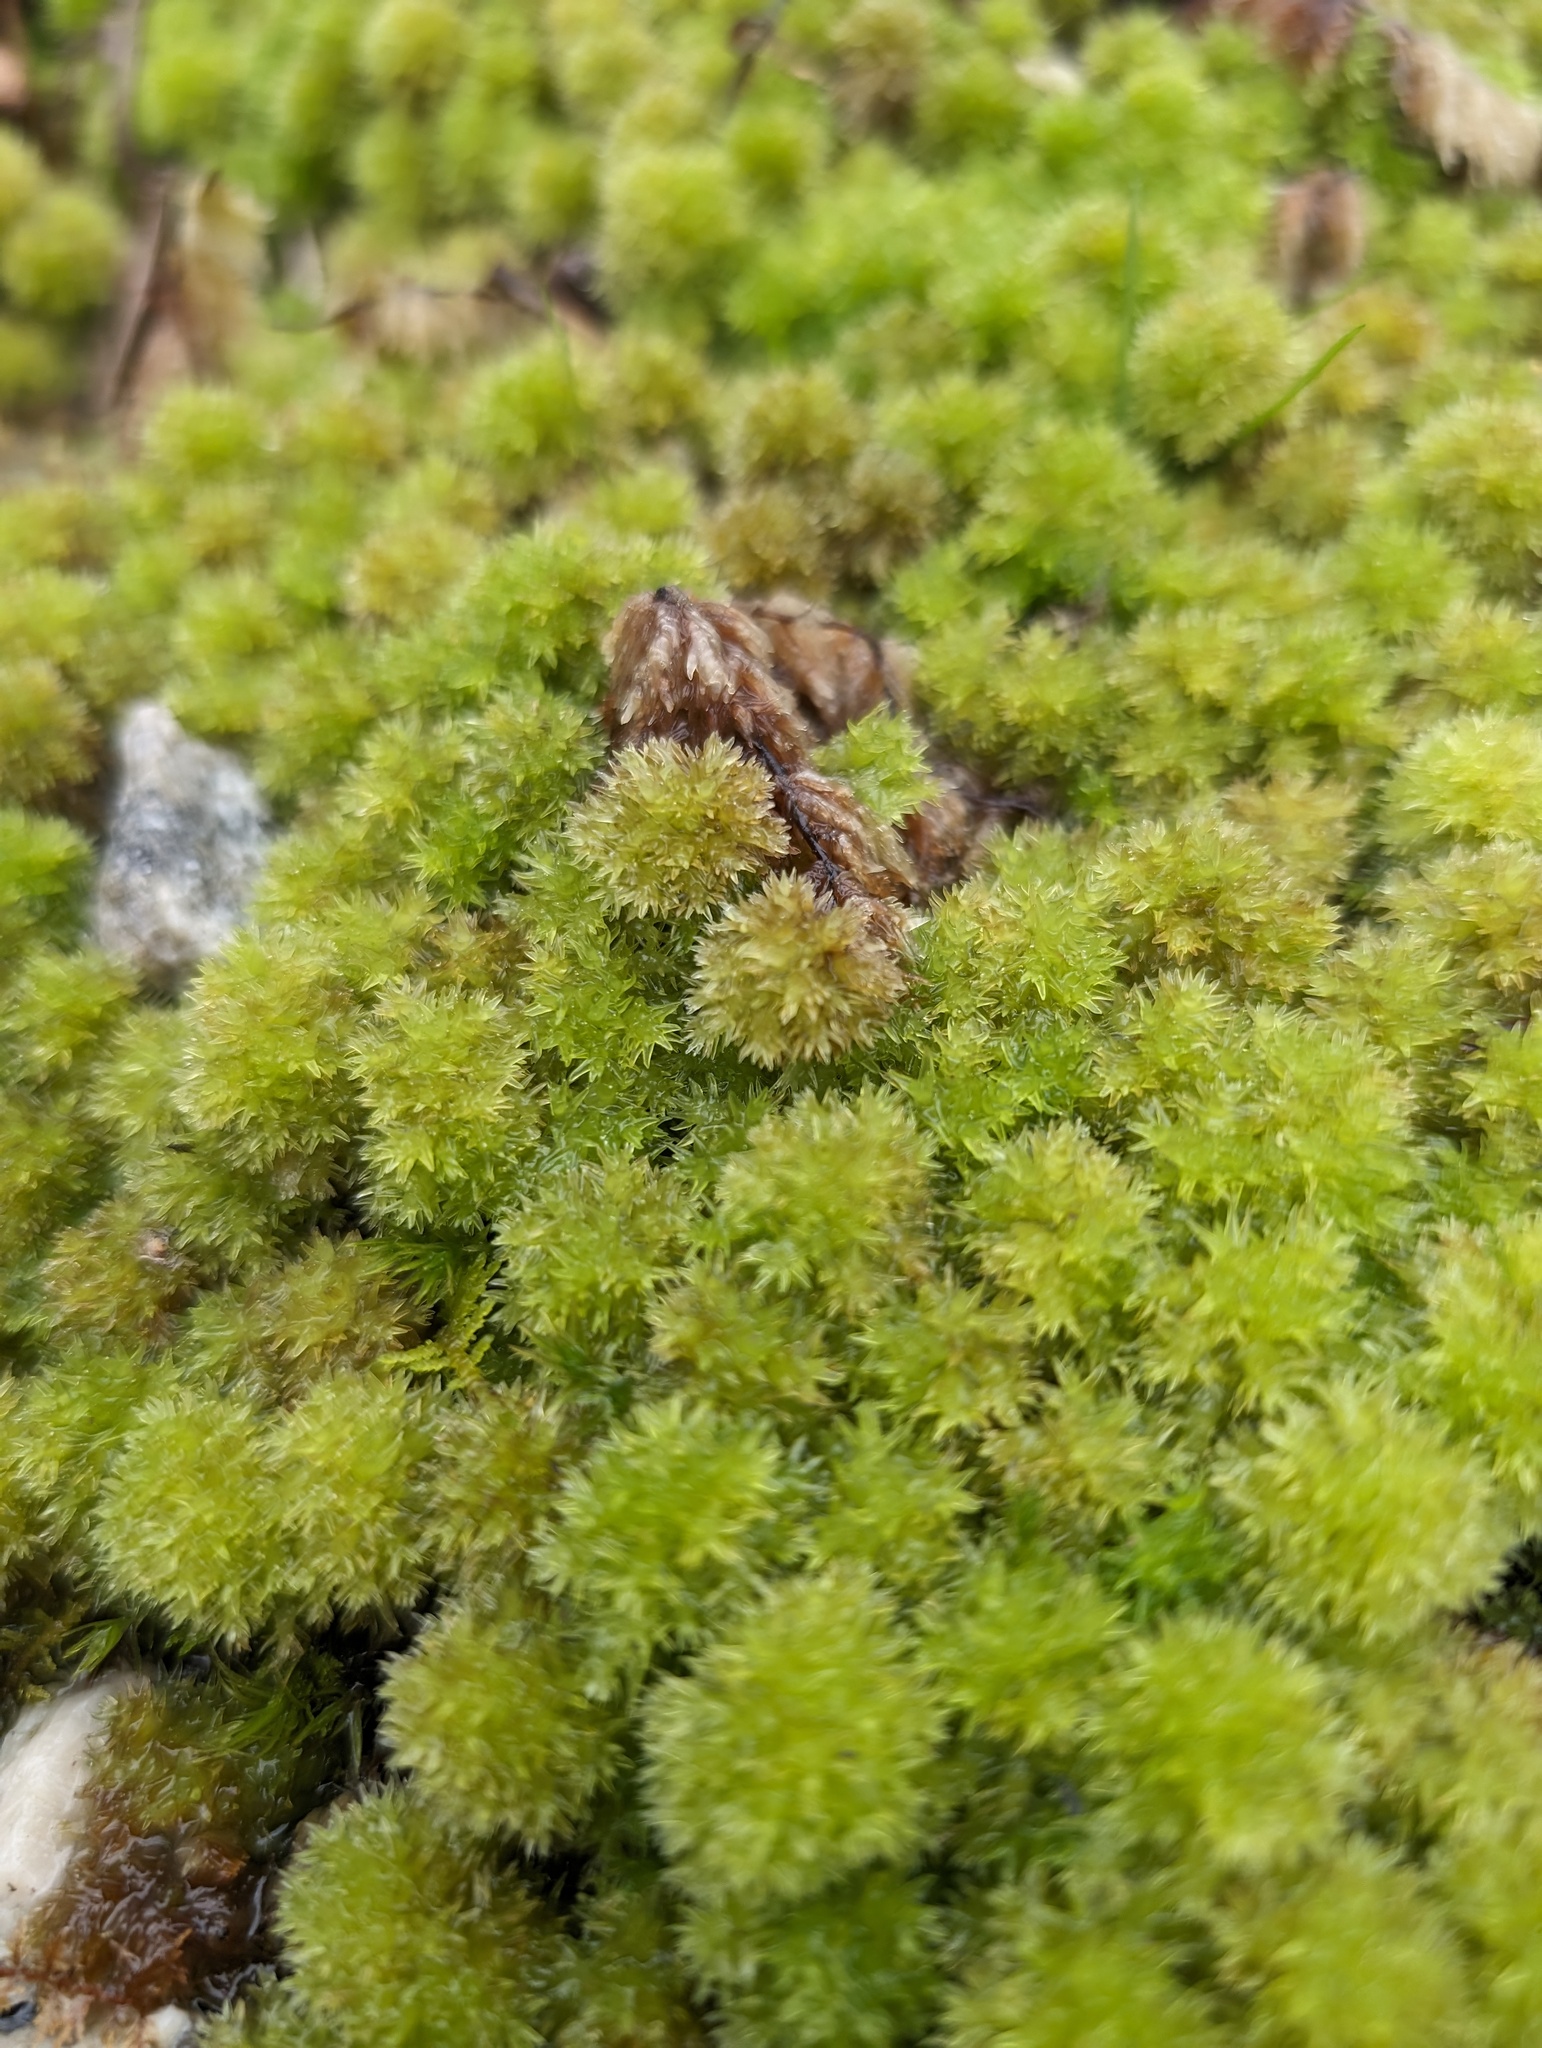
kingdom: Plantae
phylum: Bryophyta
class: Sphagnopsida
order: Sphagnales
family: Sphagnaceae
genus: Sphagnum
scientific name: Sphagnum compactum
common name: Compact peat moss
